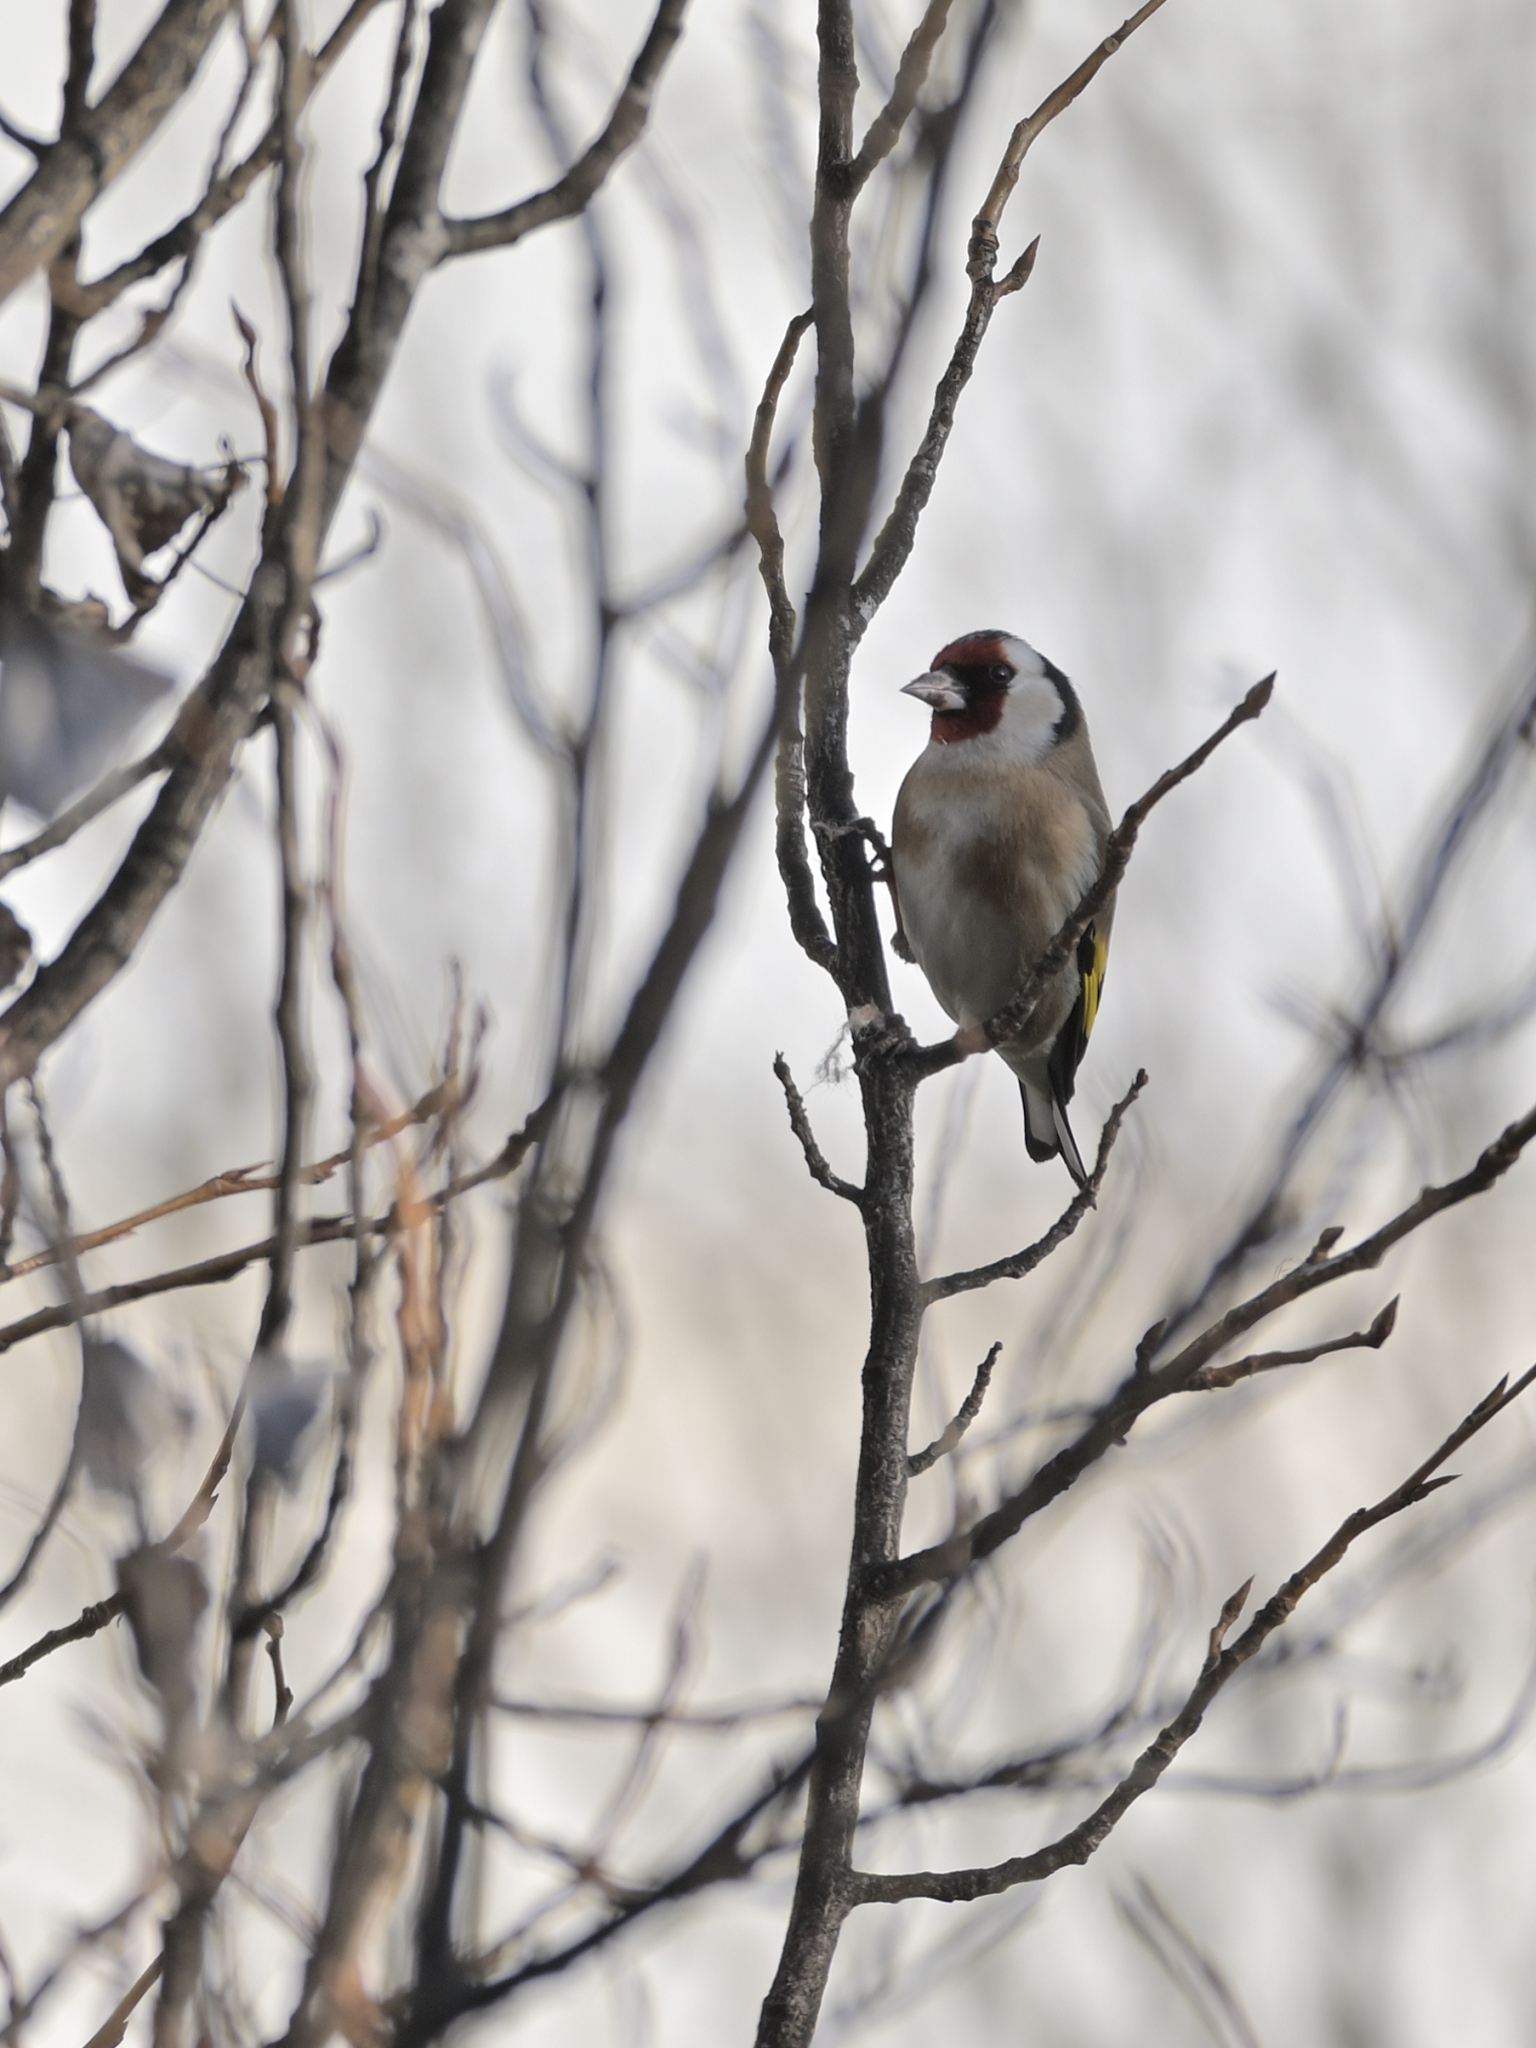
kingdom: Animalia
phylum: Chordata
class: Aves
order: Passeriformes
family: Fringillidae
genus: Carduelis
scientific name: Carduelis carduelis
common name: European goldfinch
